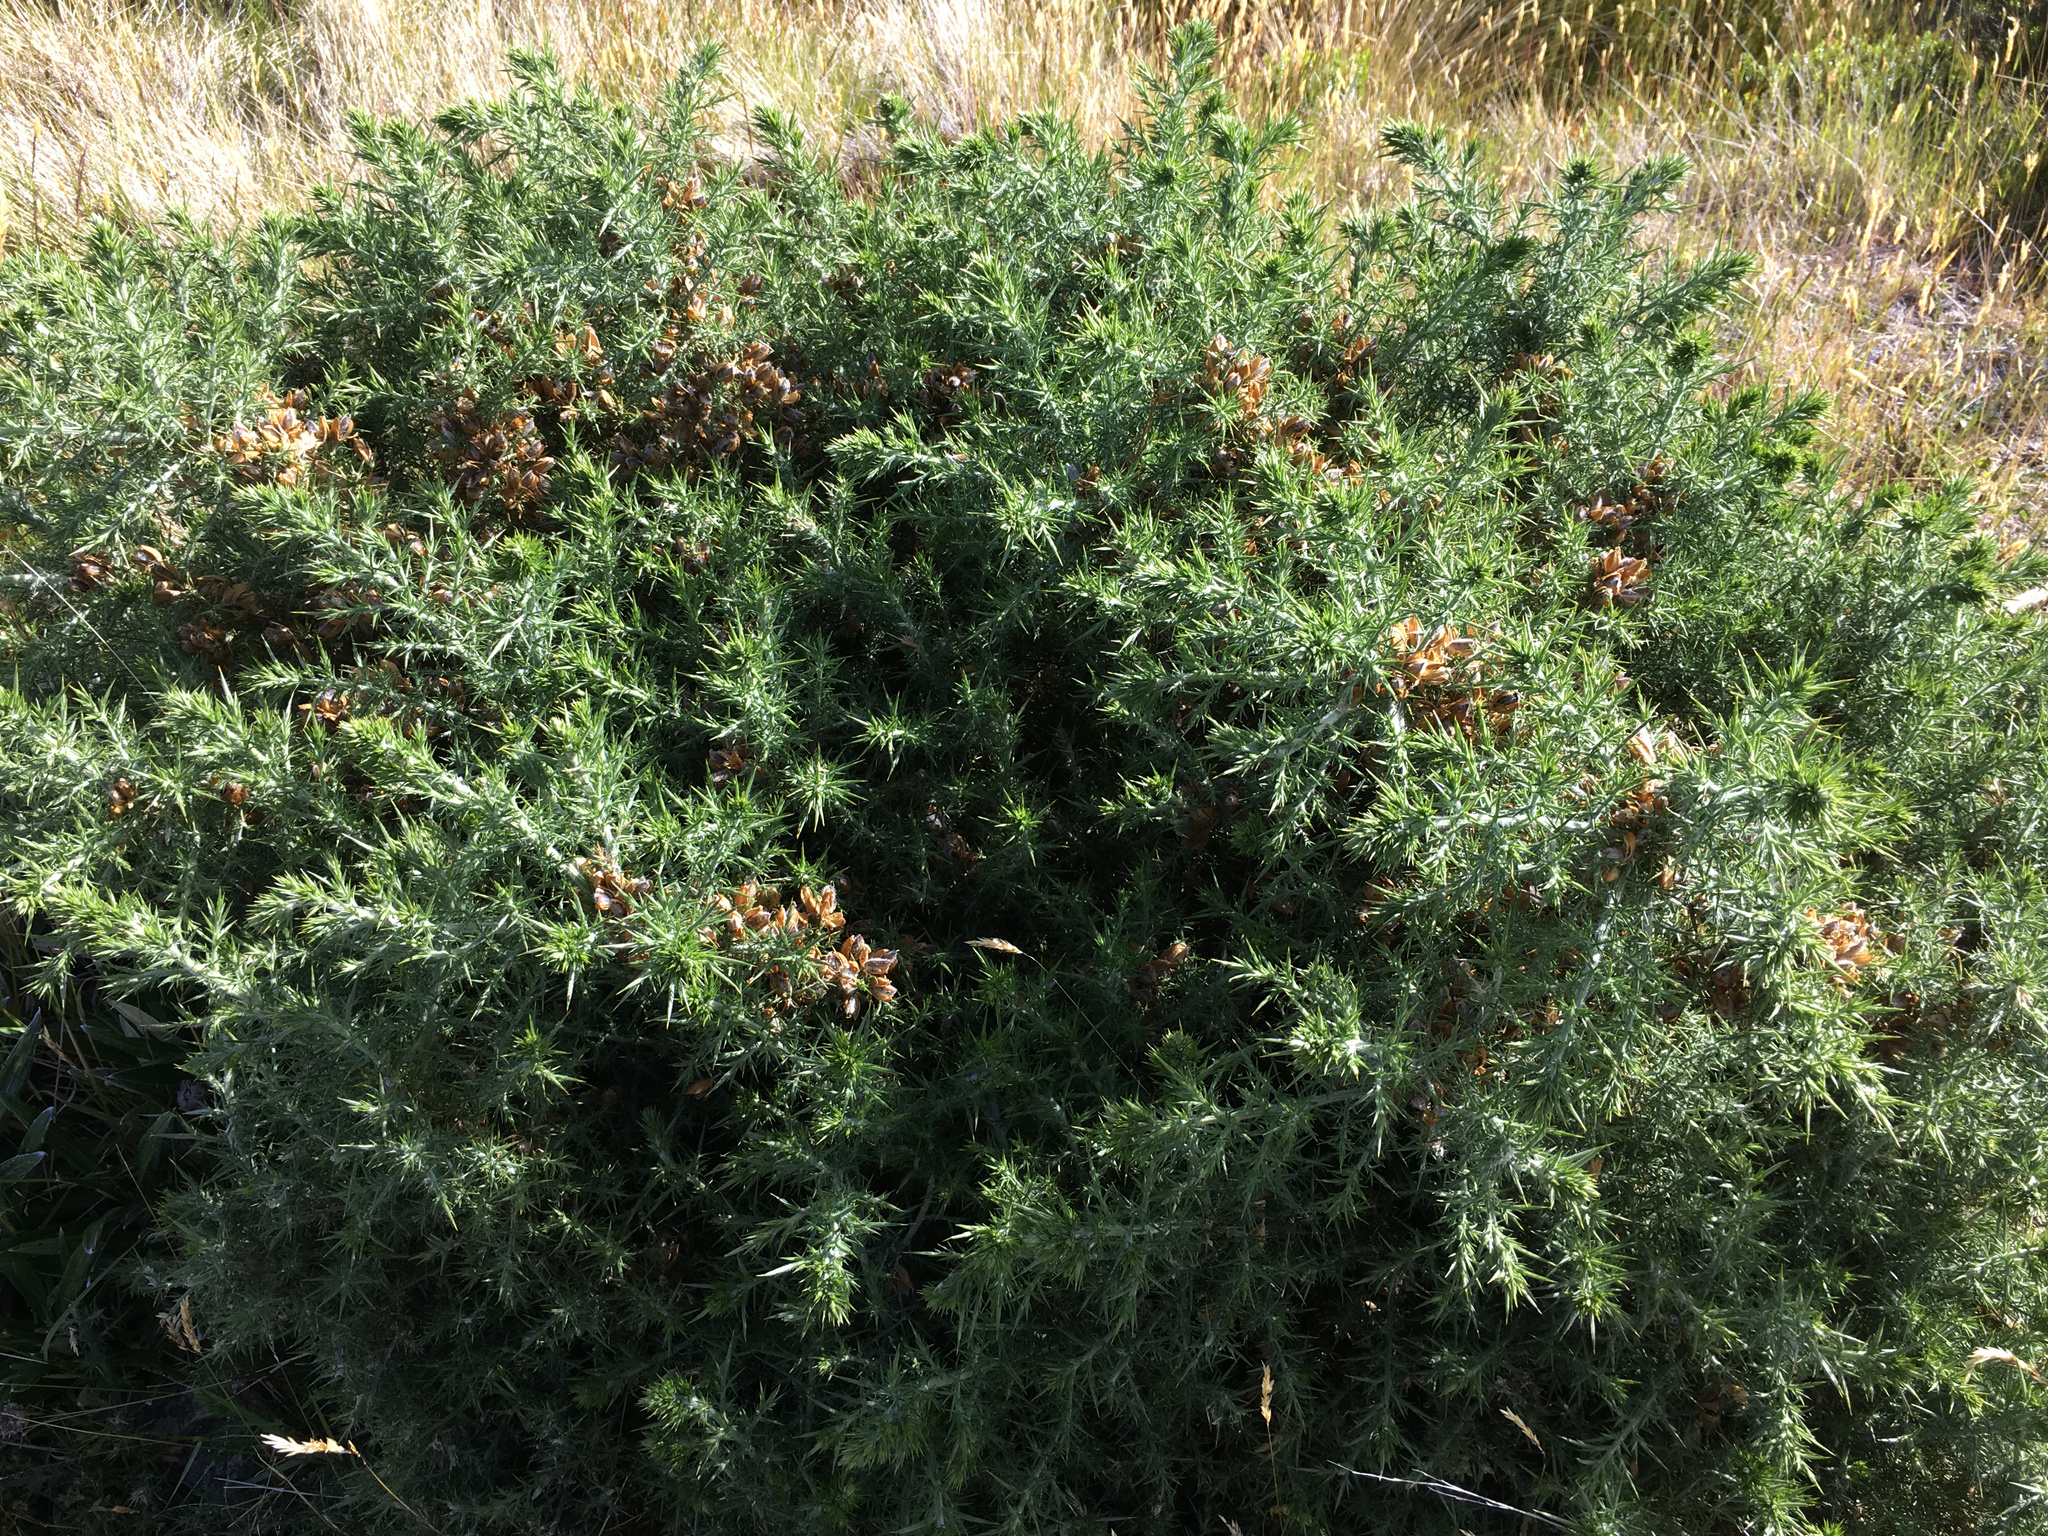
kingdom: Plantae
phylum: Tracheophyta
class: Magnoliopsida
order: Fabales
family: Fabaceae
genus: Ulex
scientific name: Ulex europaeus
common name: Common gorse
